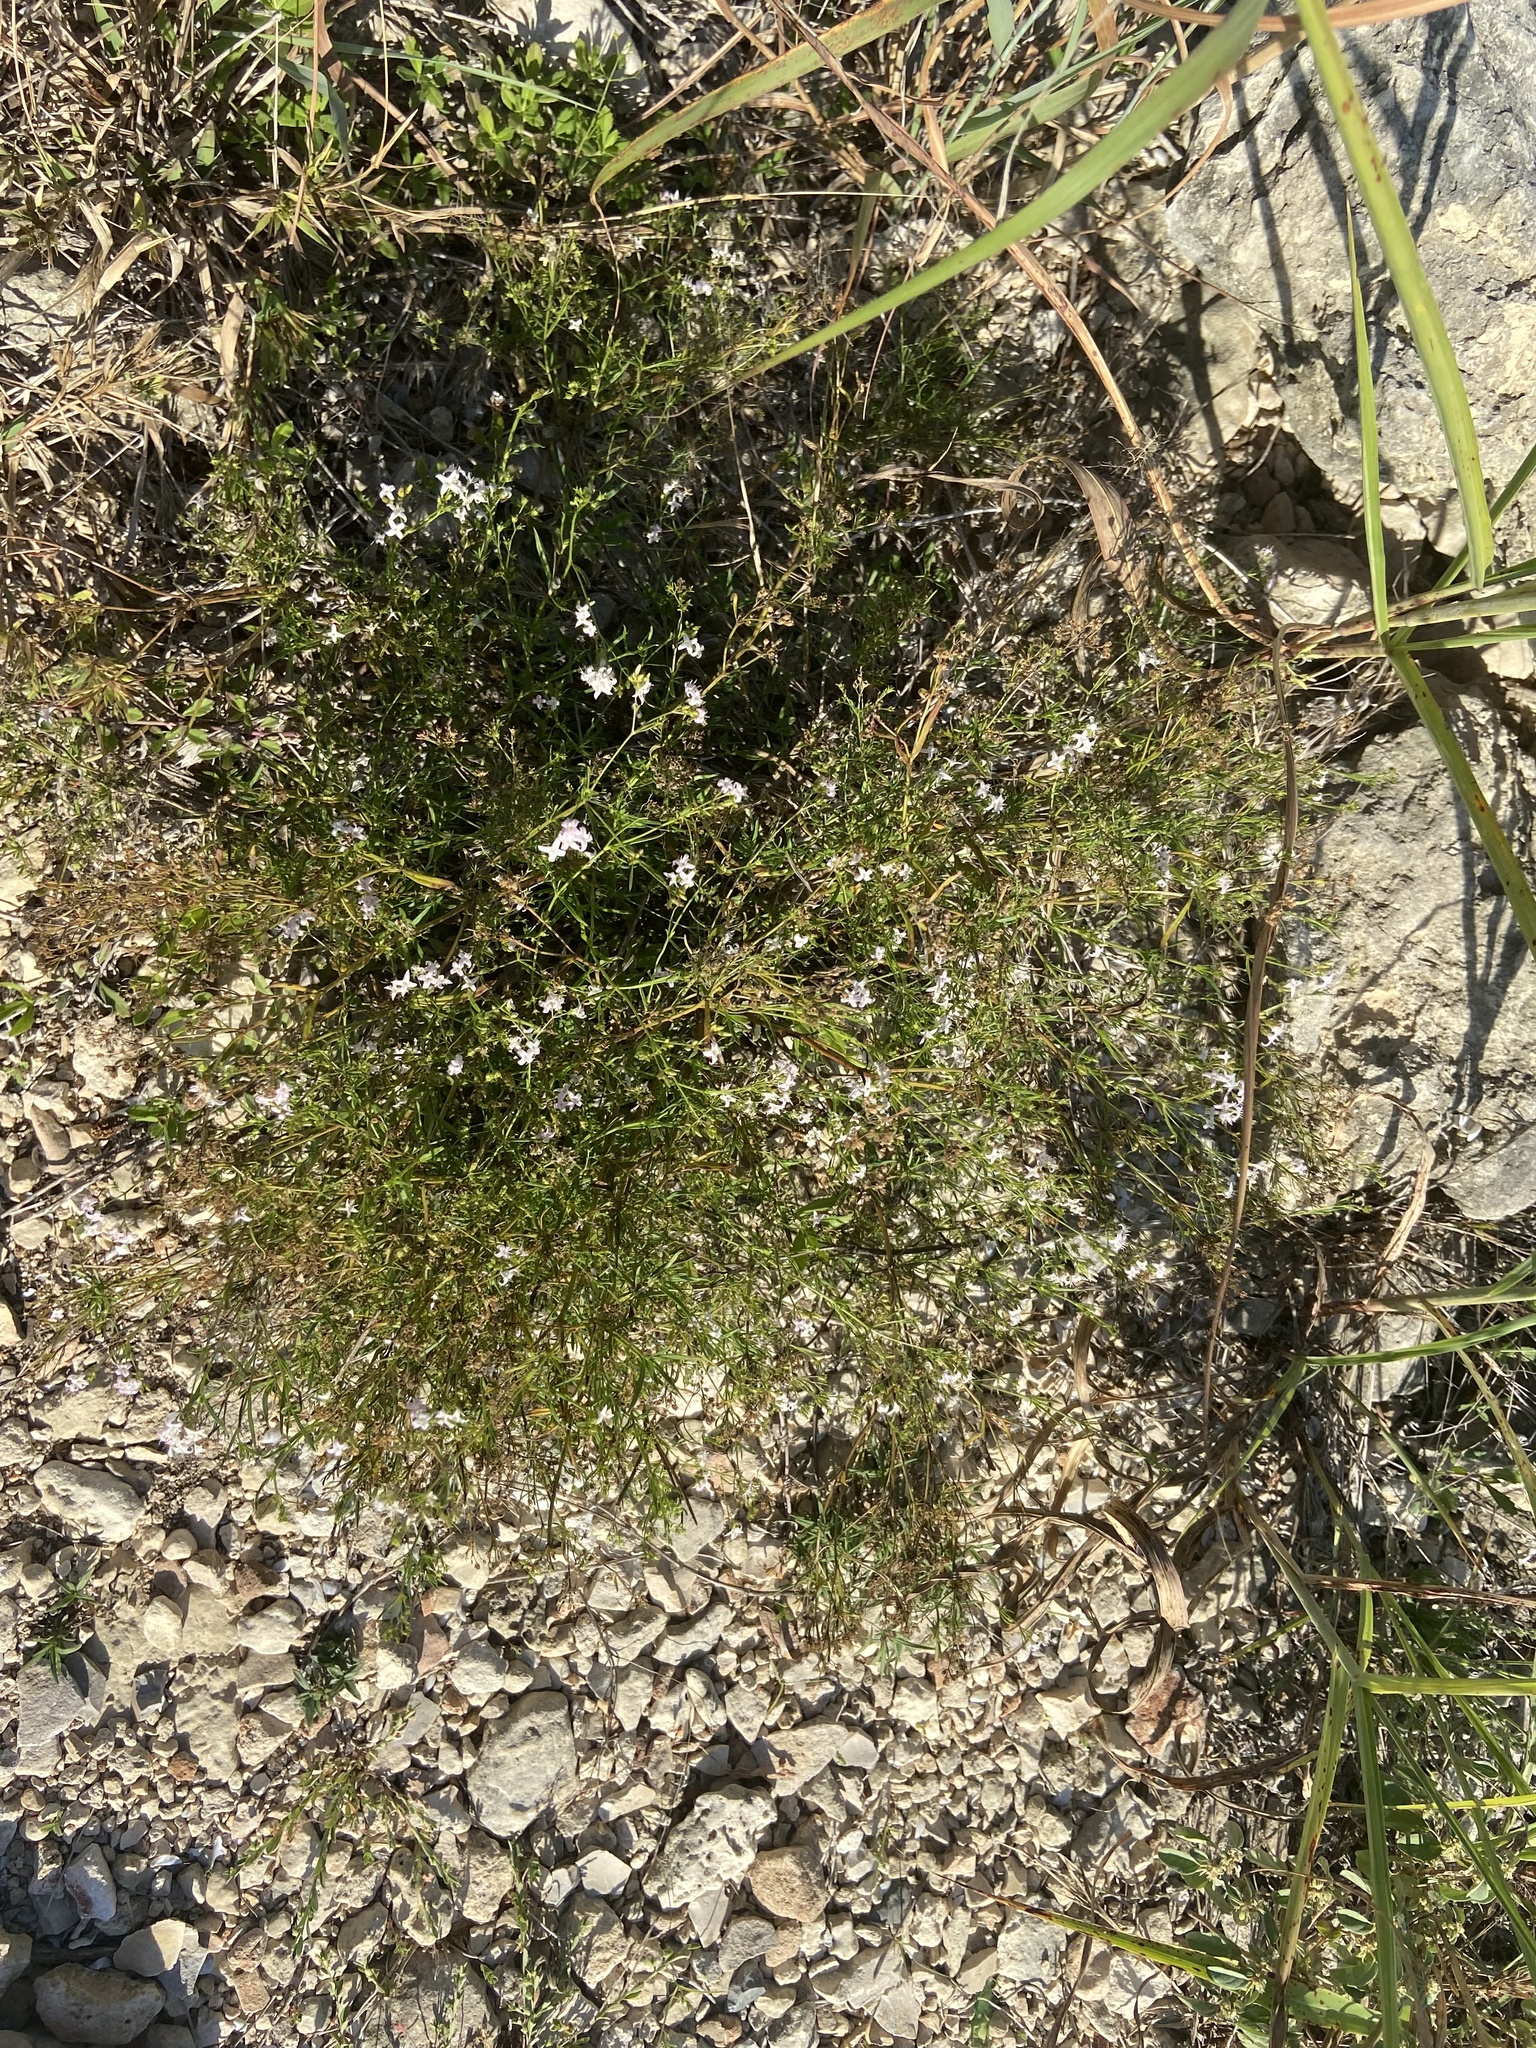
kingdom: Plantae
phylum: Tracheophyta
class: Magnoliopsida
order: Gentianales
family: Rubiaceae
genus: Stenaria
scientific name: Stenaria nigricans
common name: Diamondflowers
